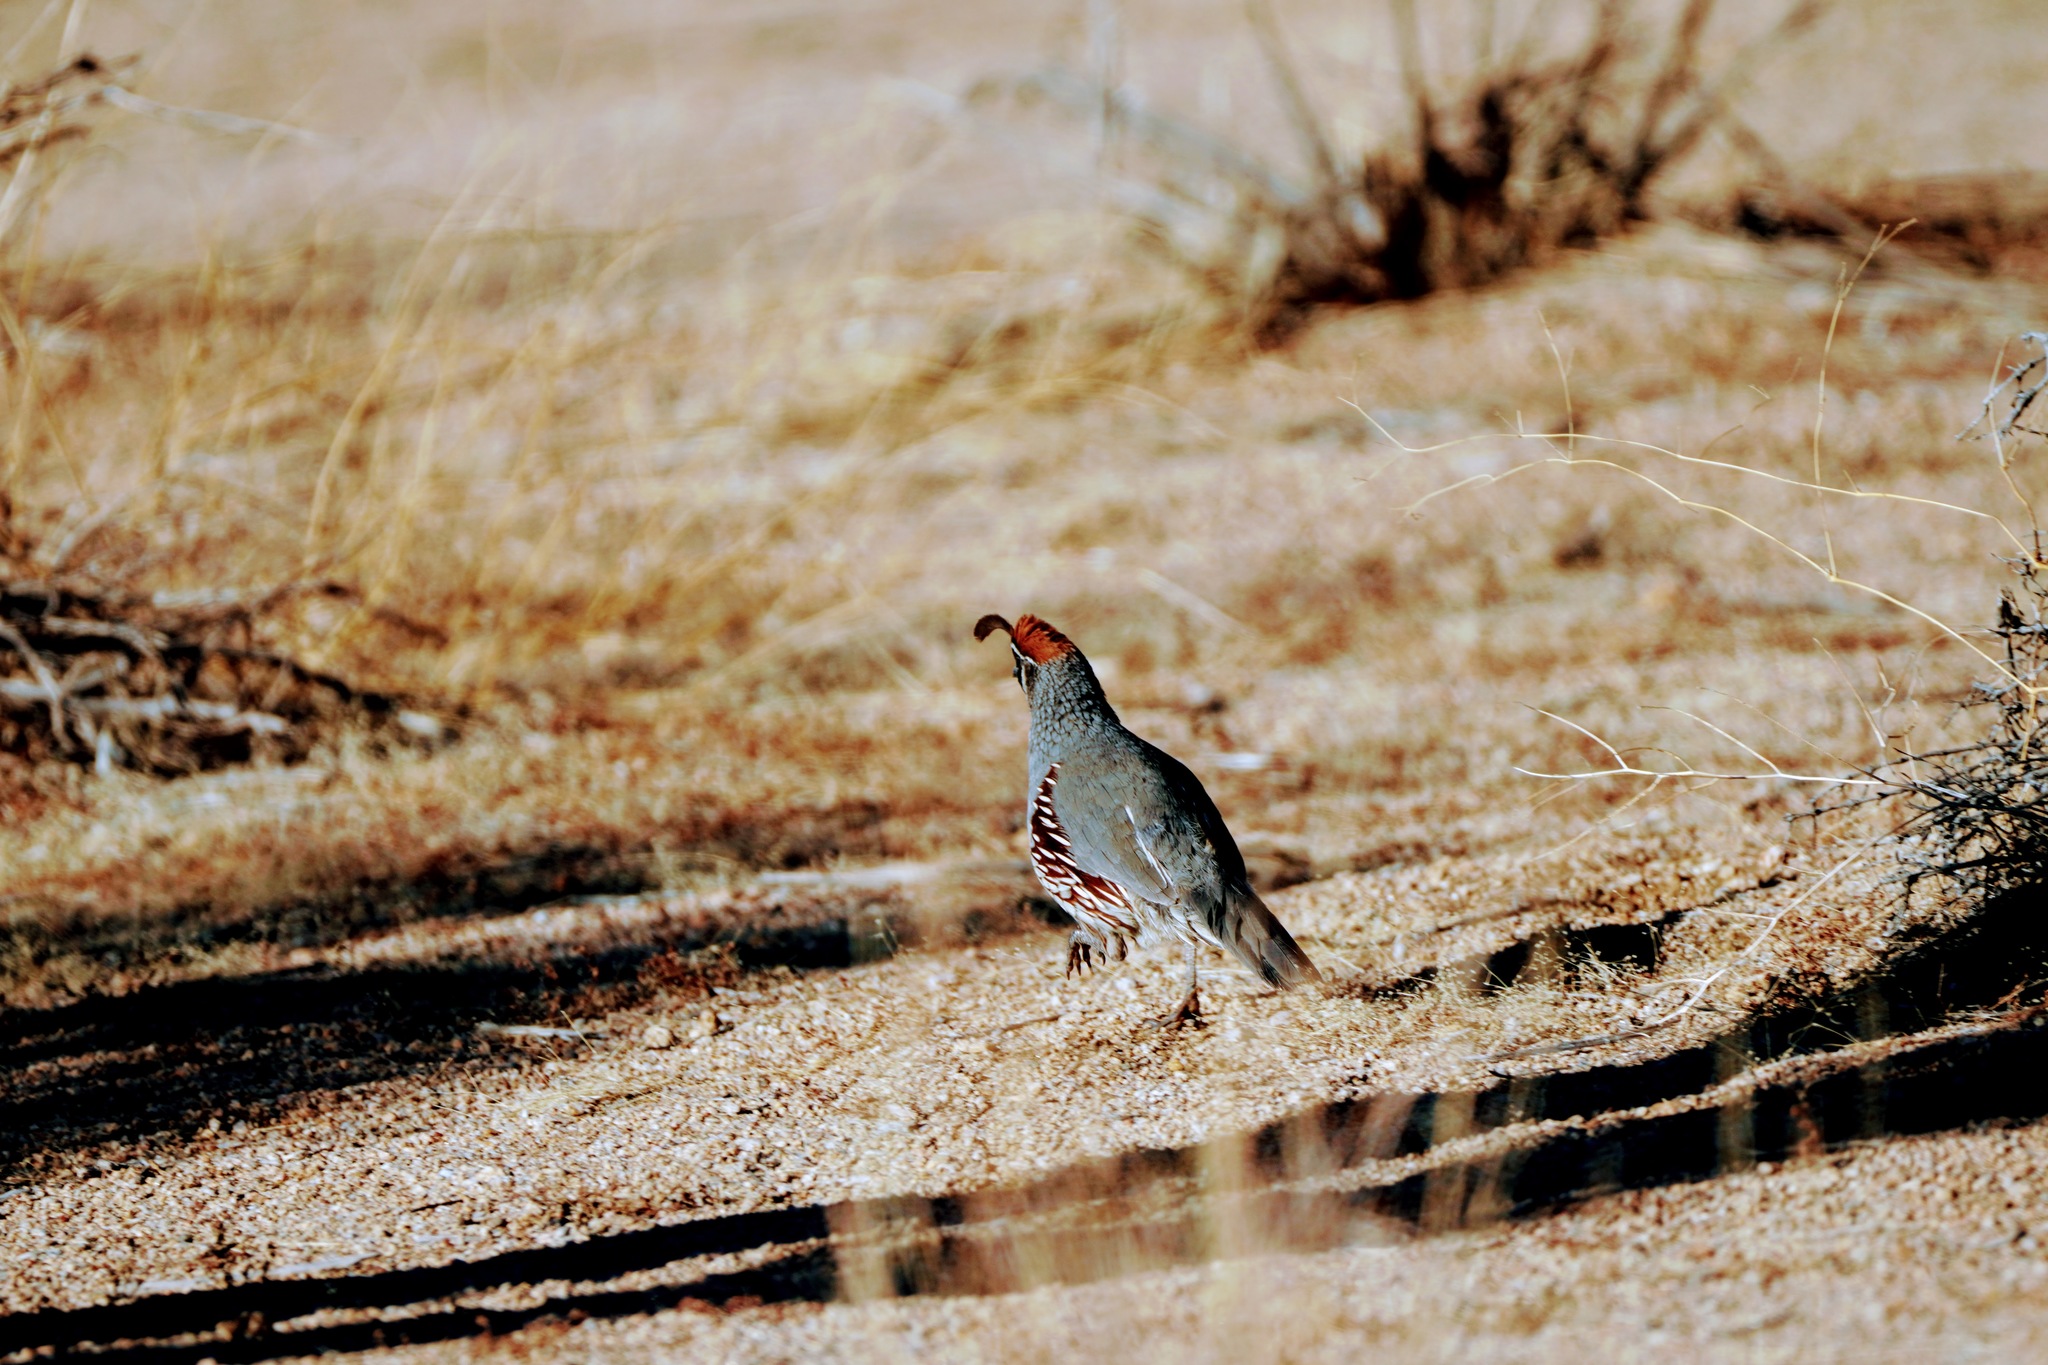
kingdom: Animalia
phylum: Chordata
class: Aves
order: Galliformes
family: Odontophoridae
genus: Callipepla
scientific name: Callipepla gambelii
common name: Gambel's quail
